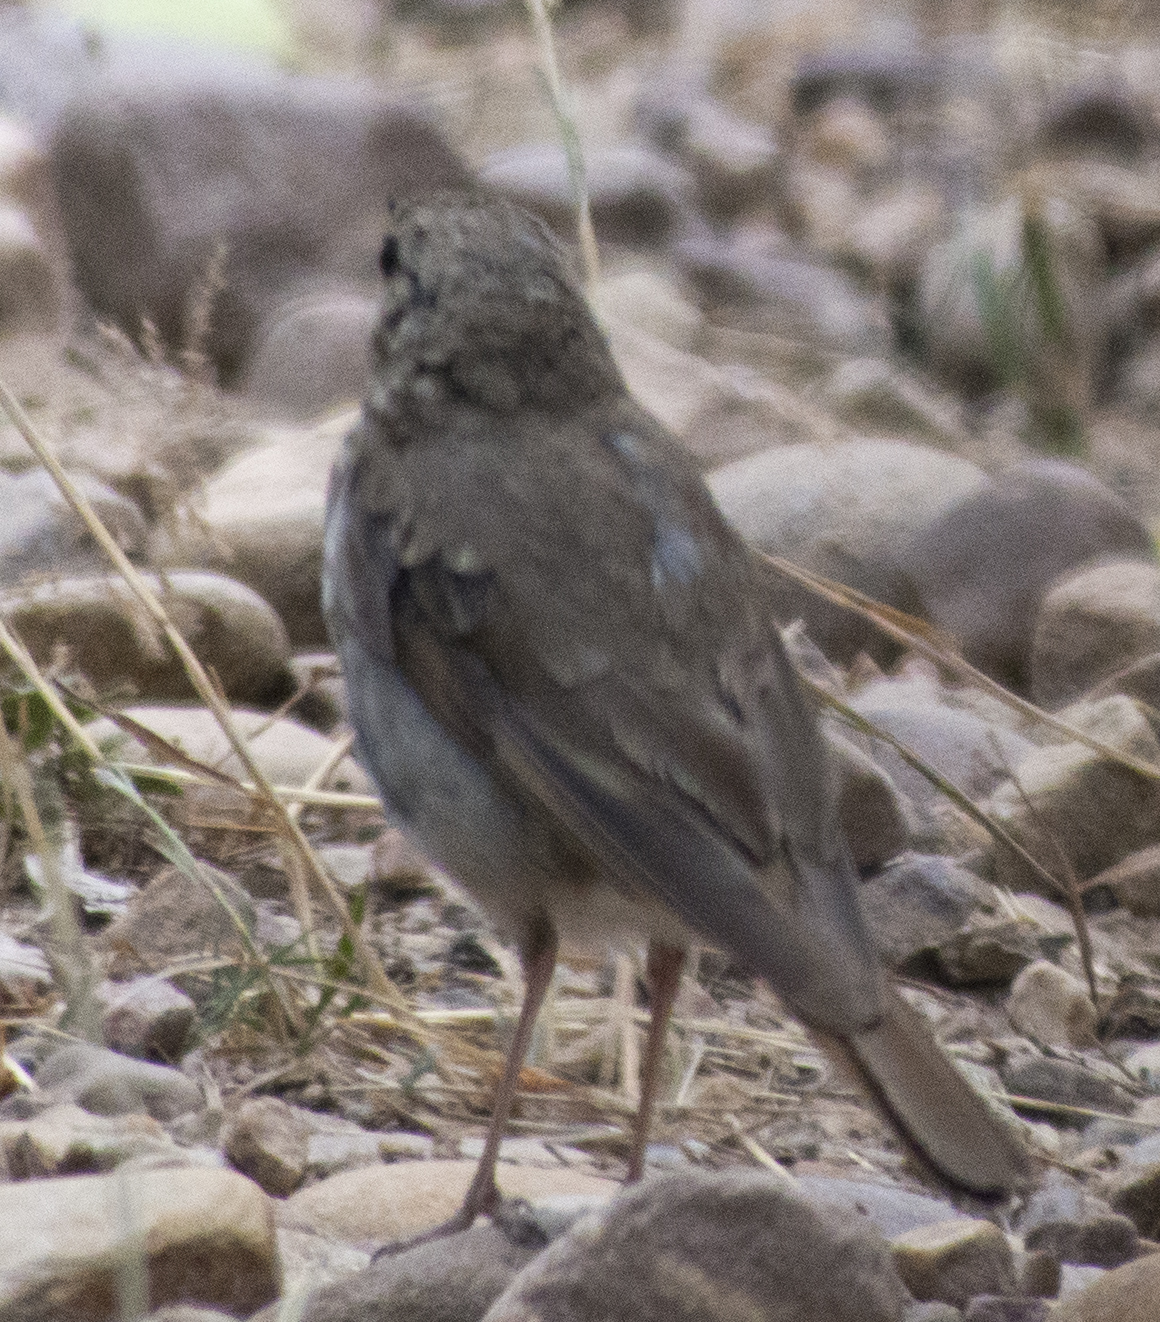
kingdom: Animalia
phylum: Chordata
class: Aves
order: Passeriformes
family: Turdidae
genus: Catharus
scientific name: Catharus guttatus
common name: Hermit thrush
